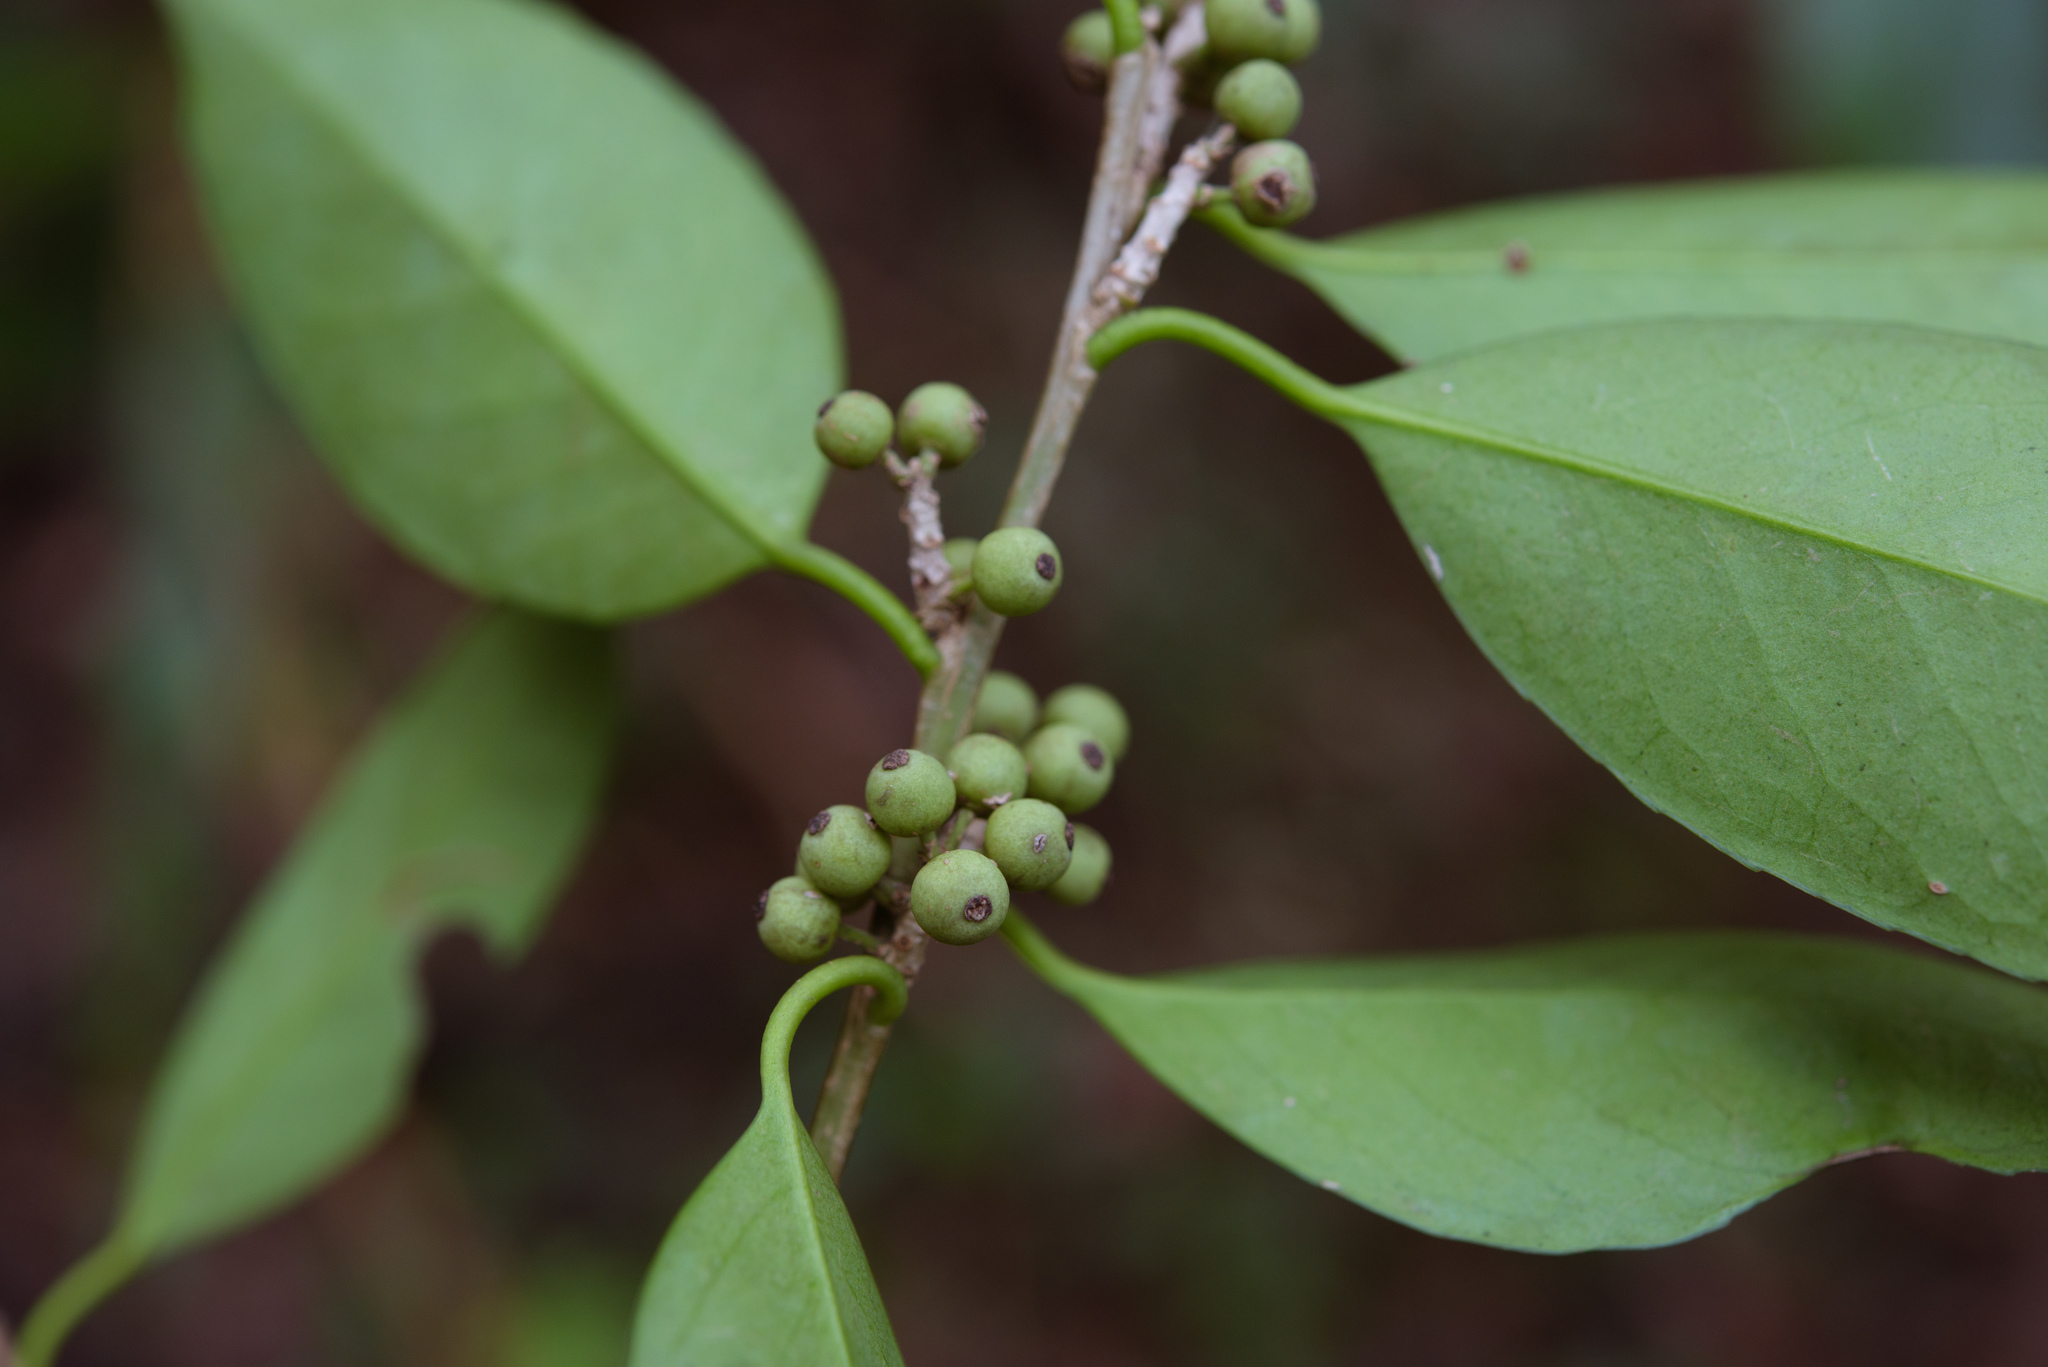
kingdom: Plantae
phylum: Tracheophyta
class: Magnoliopsida
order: Aquifoliales
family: Aquifoliaceae
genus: Ilex
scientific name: Ilex ficoidea
